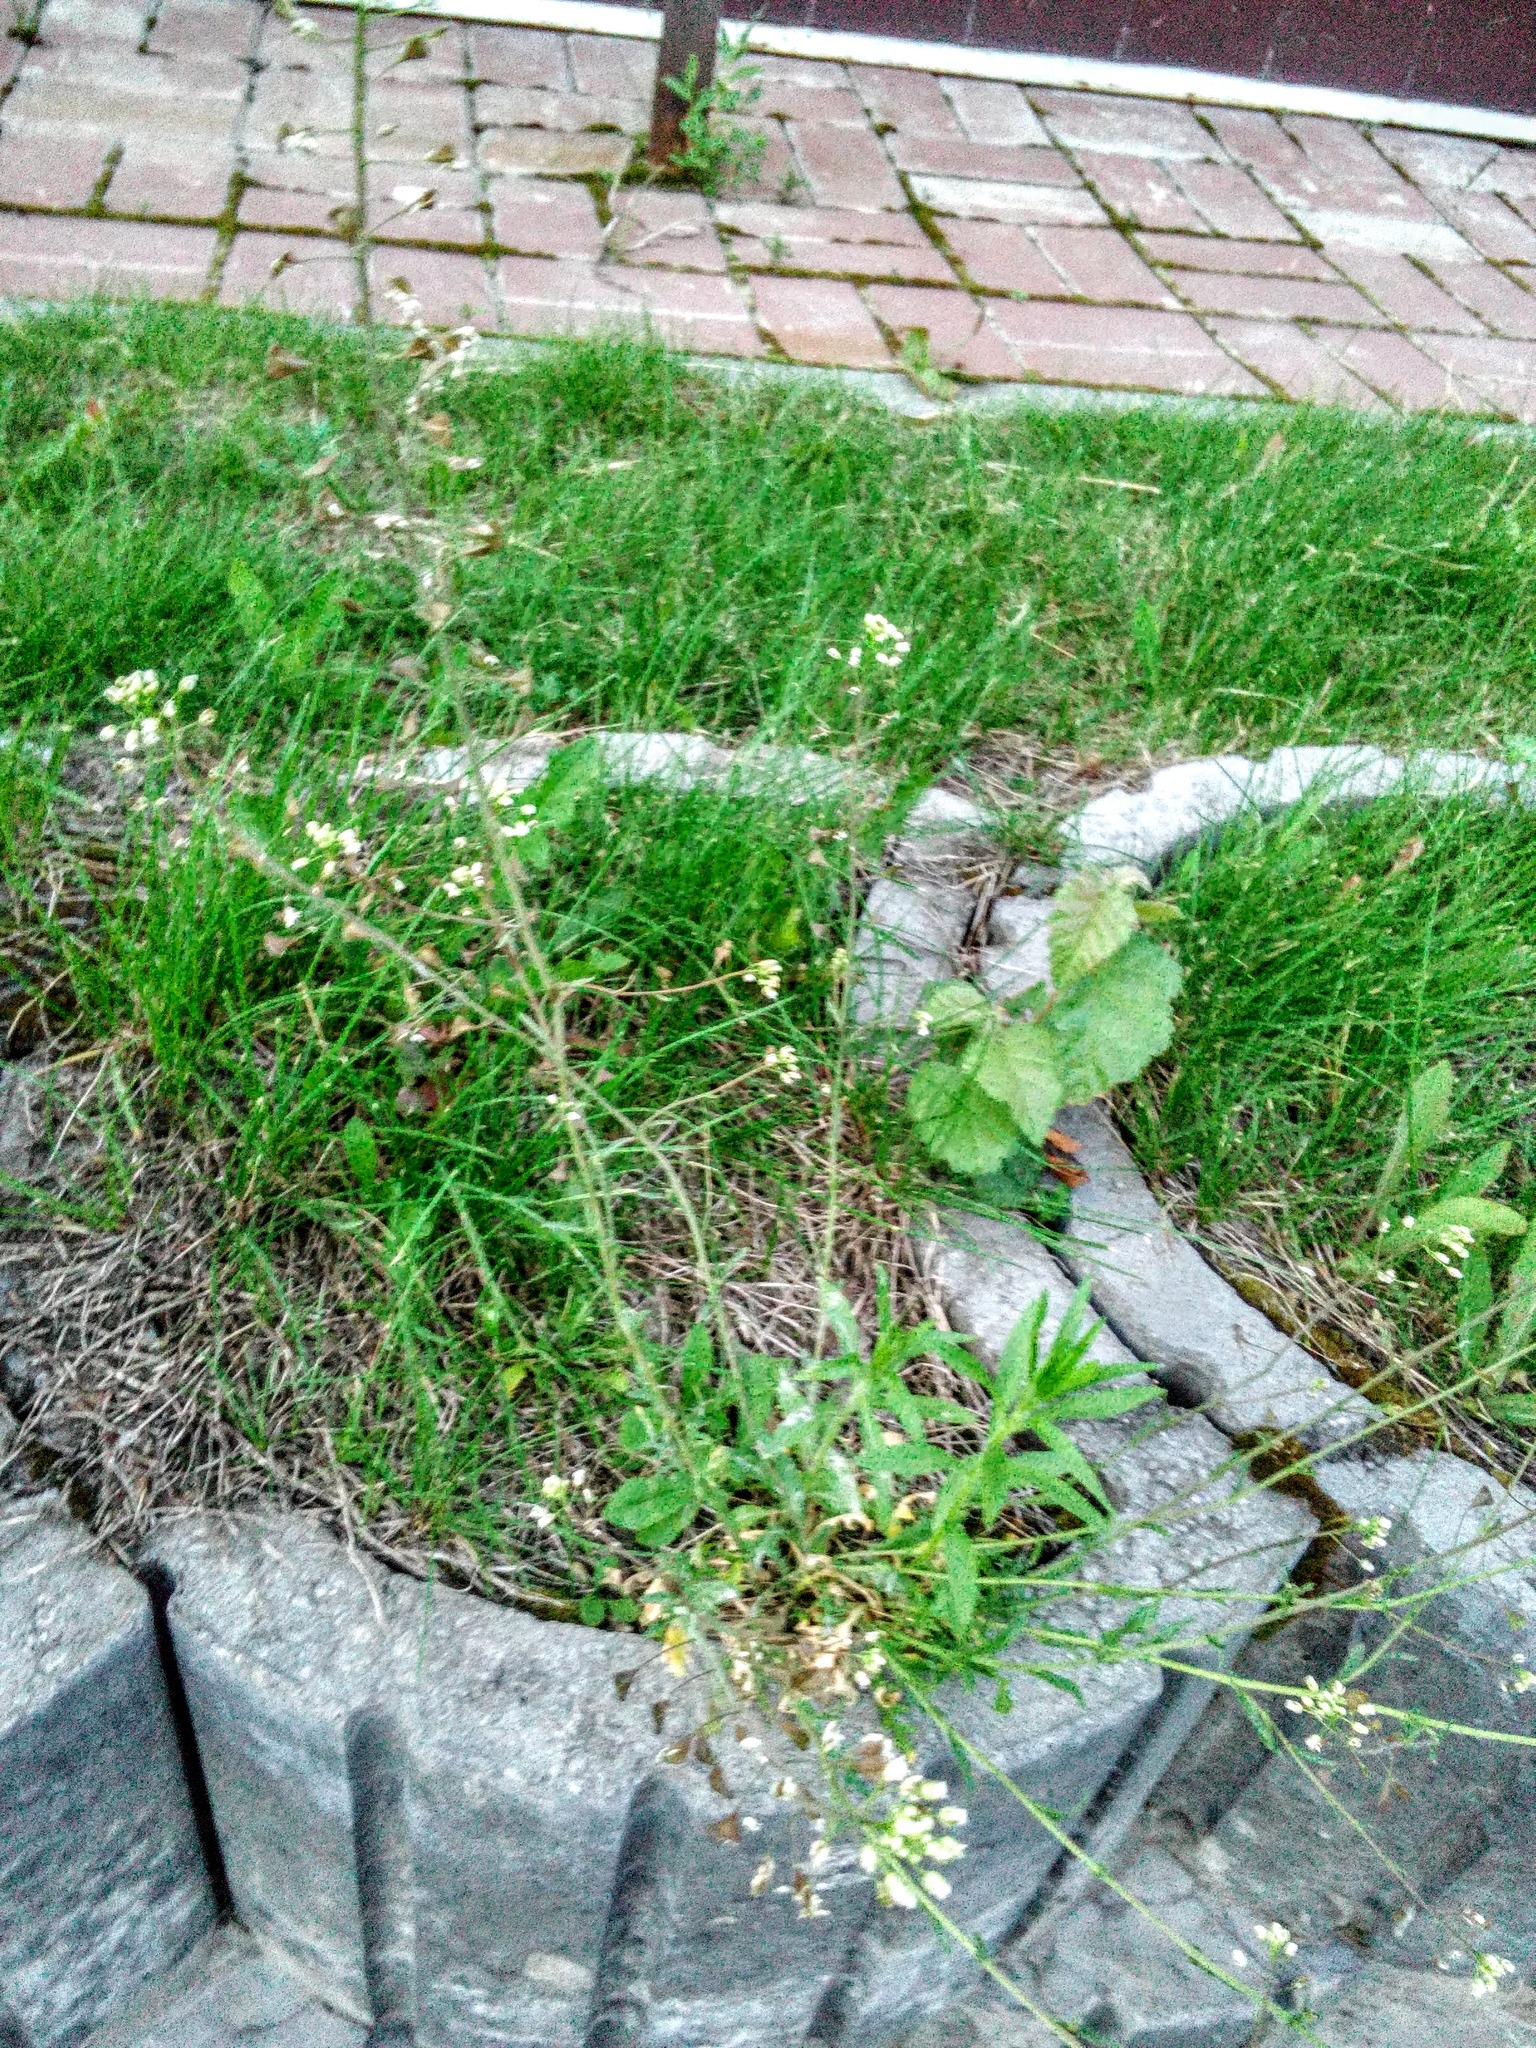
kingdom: Plantae
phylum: Tracheophyta
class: Magnoliopsida
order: Brassicales
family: Brassicaceae
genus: Capsella
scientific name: Capsella bursa-pastoris
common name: Shepherd's purse
